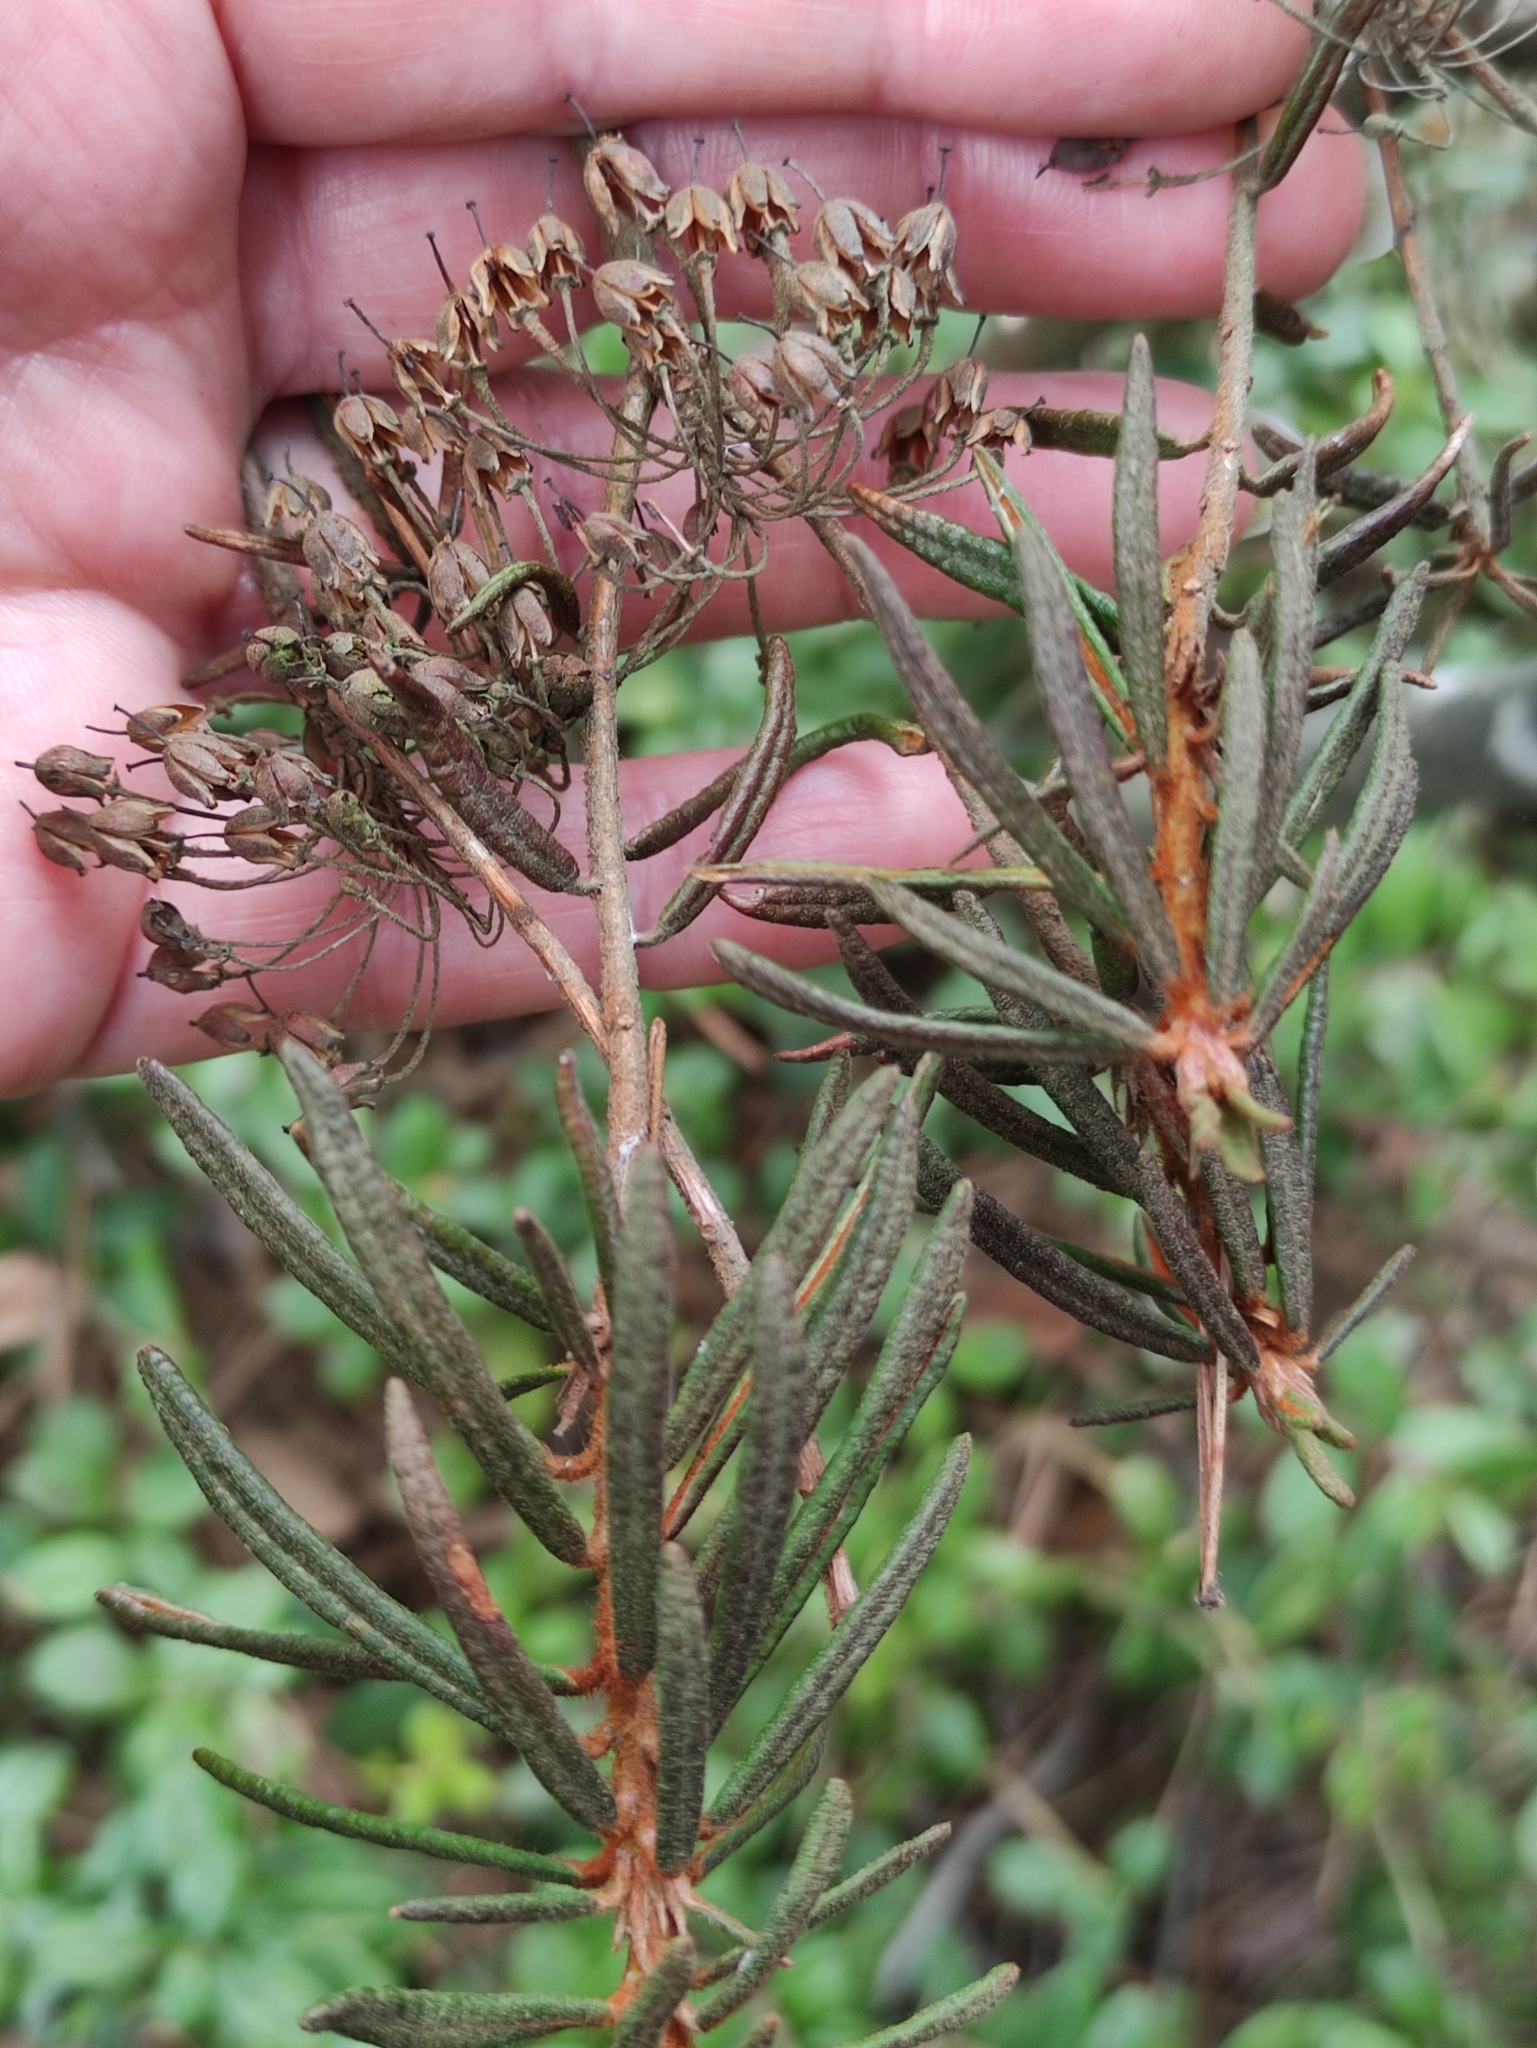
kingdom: Plantae
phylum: Tracheophyta
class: Magnoliopsida
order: Ericales
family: Ericaceae
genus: Rhododendron
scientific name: Rhododendron tomentosum
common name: Marsh labrador tea
